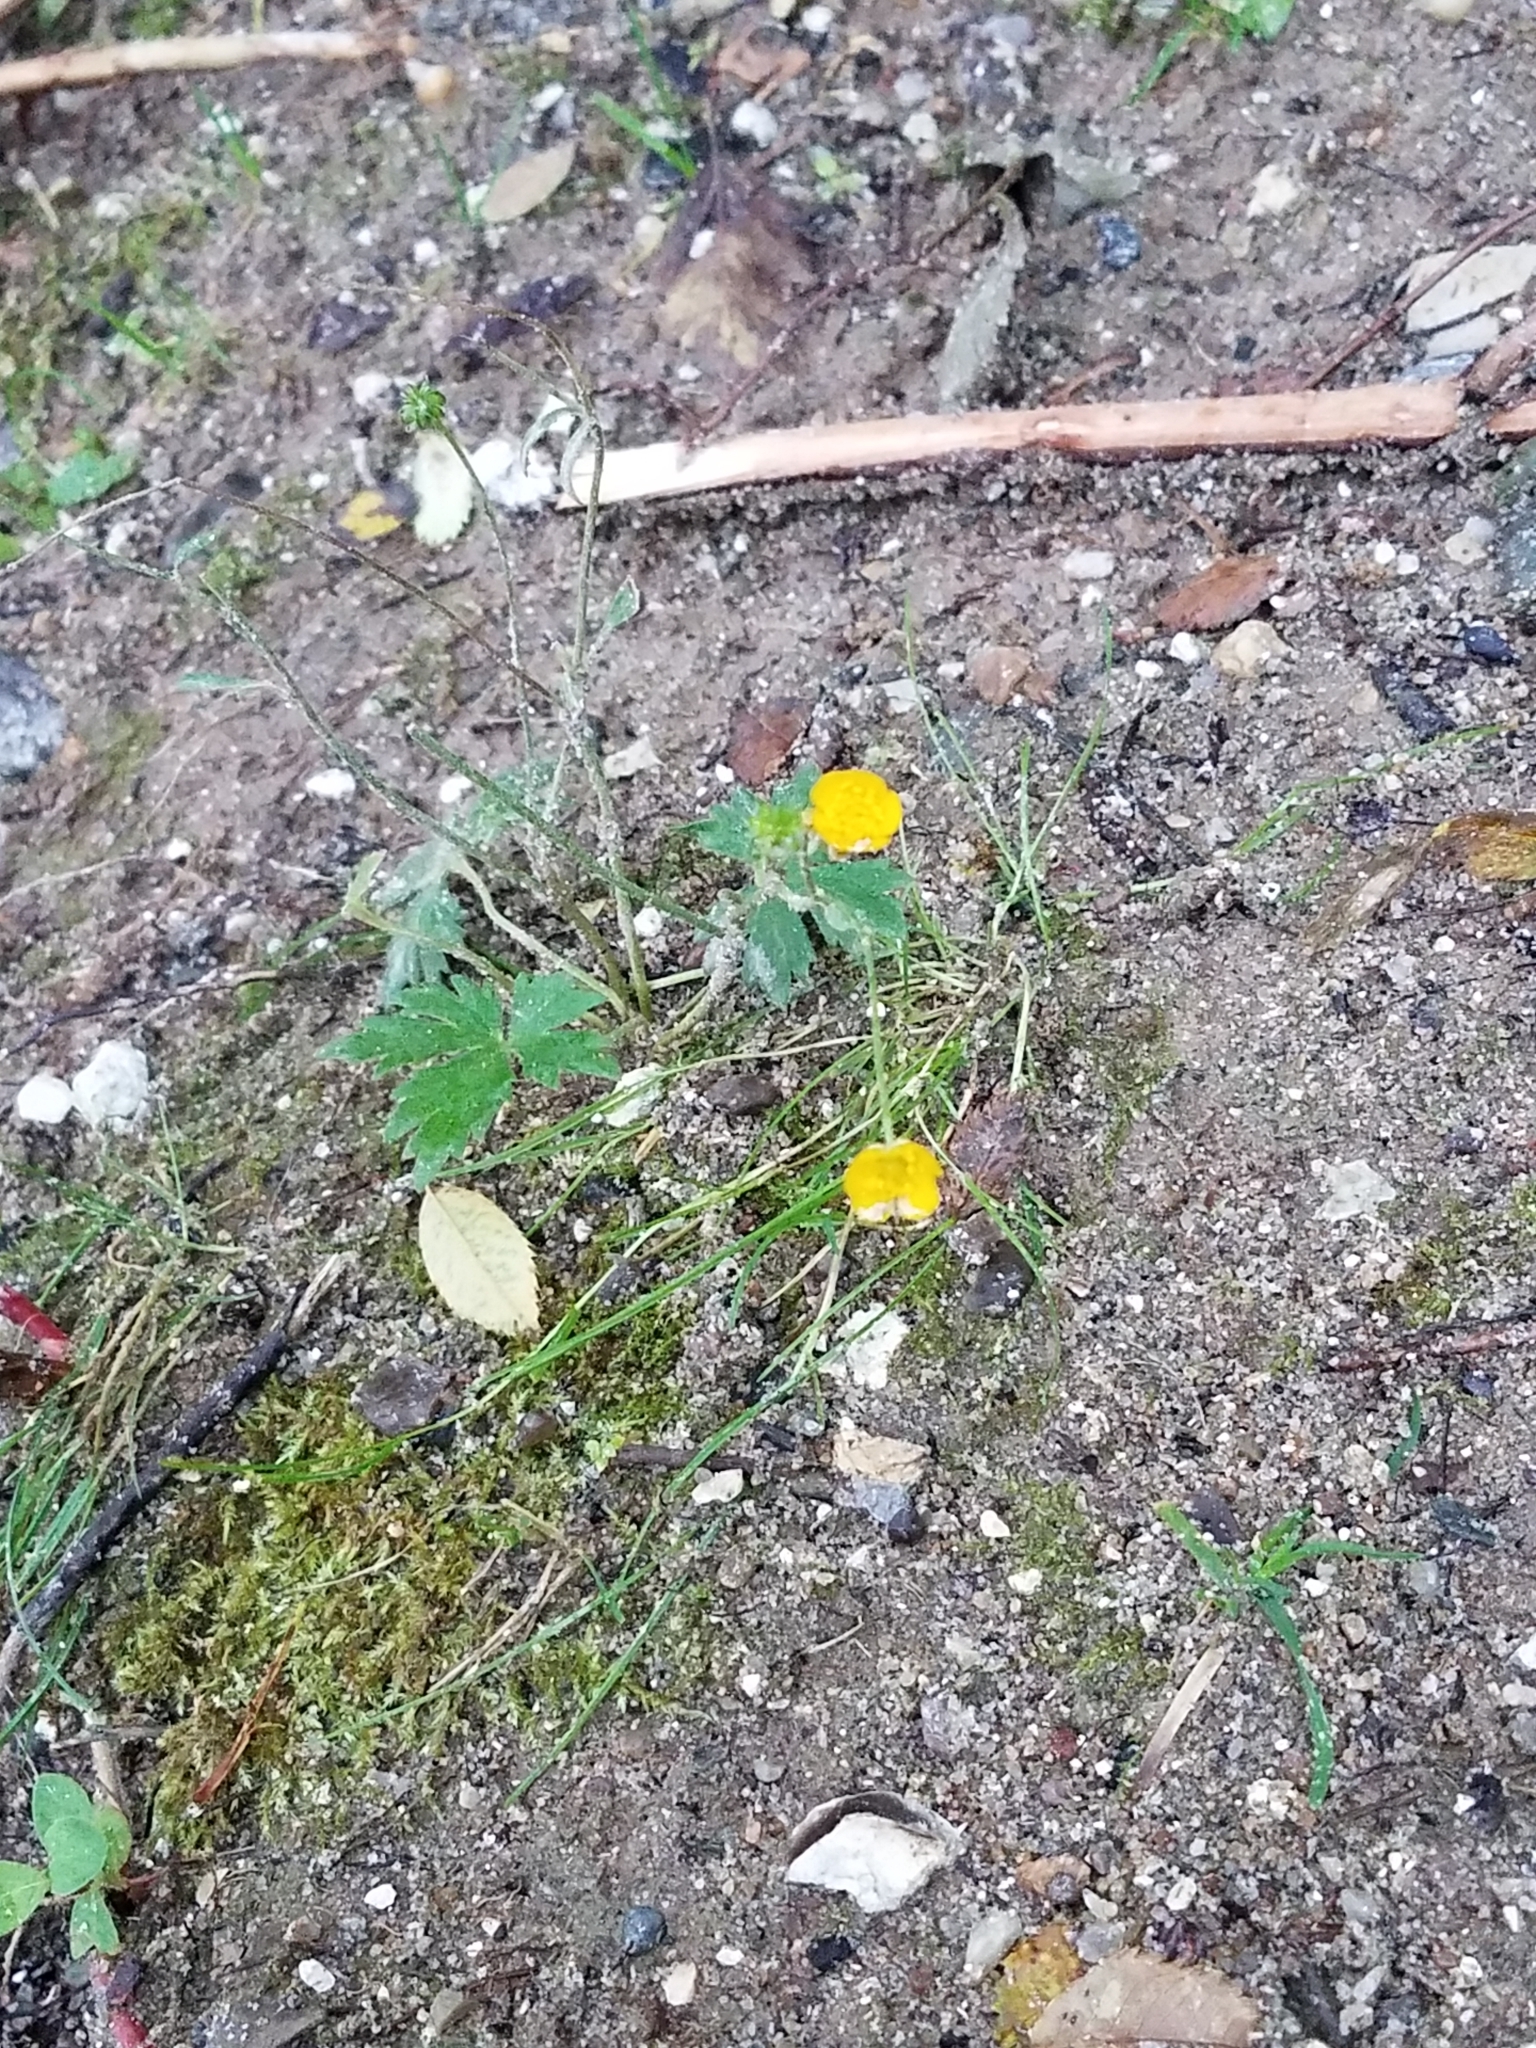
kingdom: Plantae
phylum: Tracheophyta
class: Magnoliopsida
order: Ranunculales
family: Ranunculaceae
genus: Ranunculus
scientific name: Ranunculus repens
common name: Creeping buttercup
